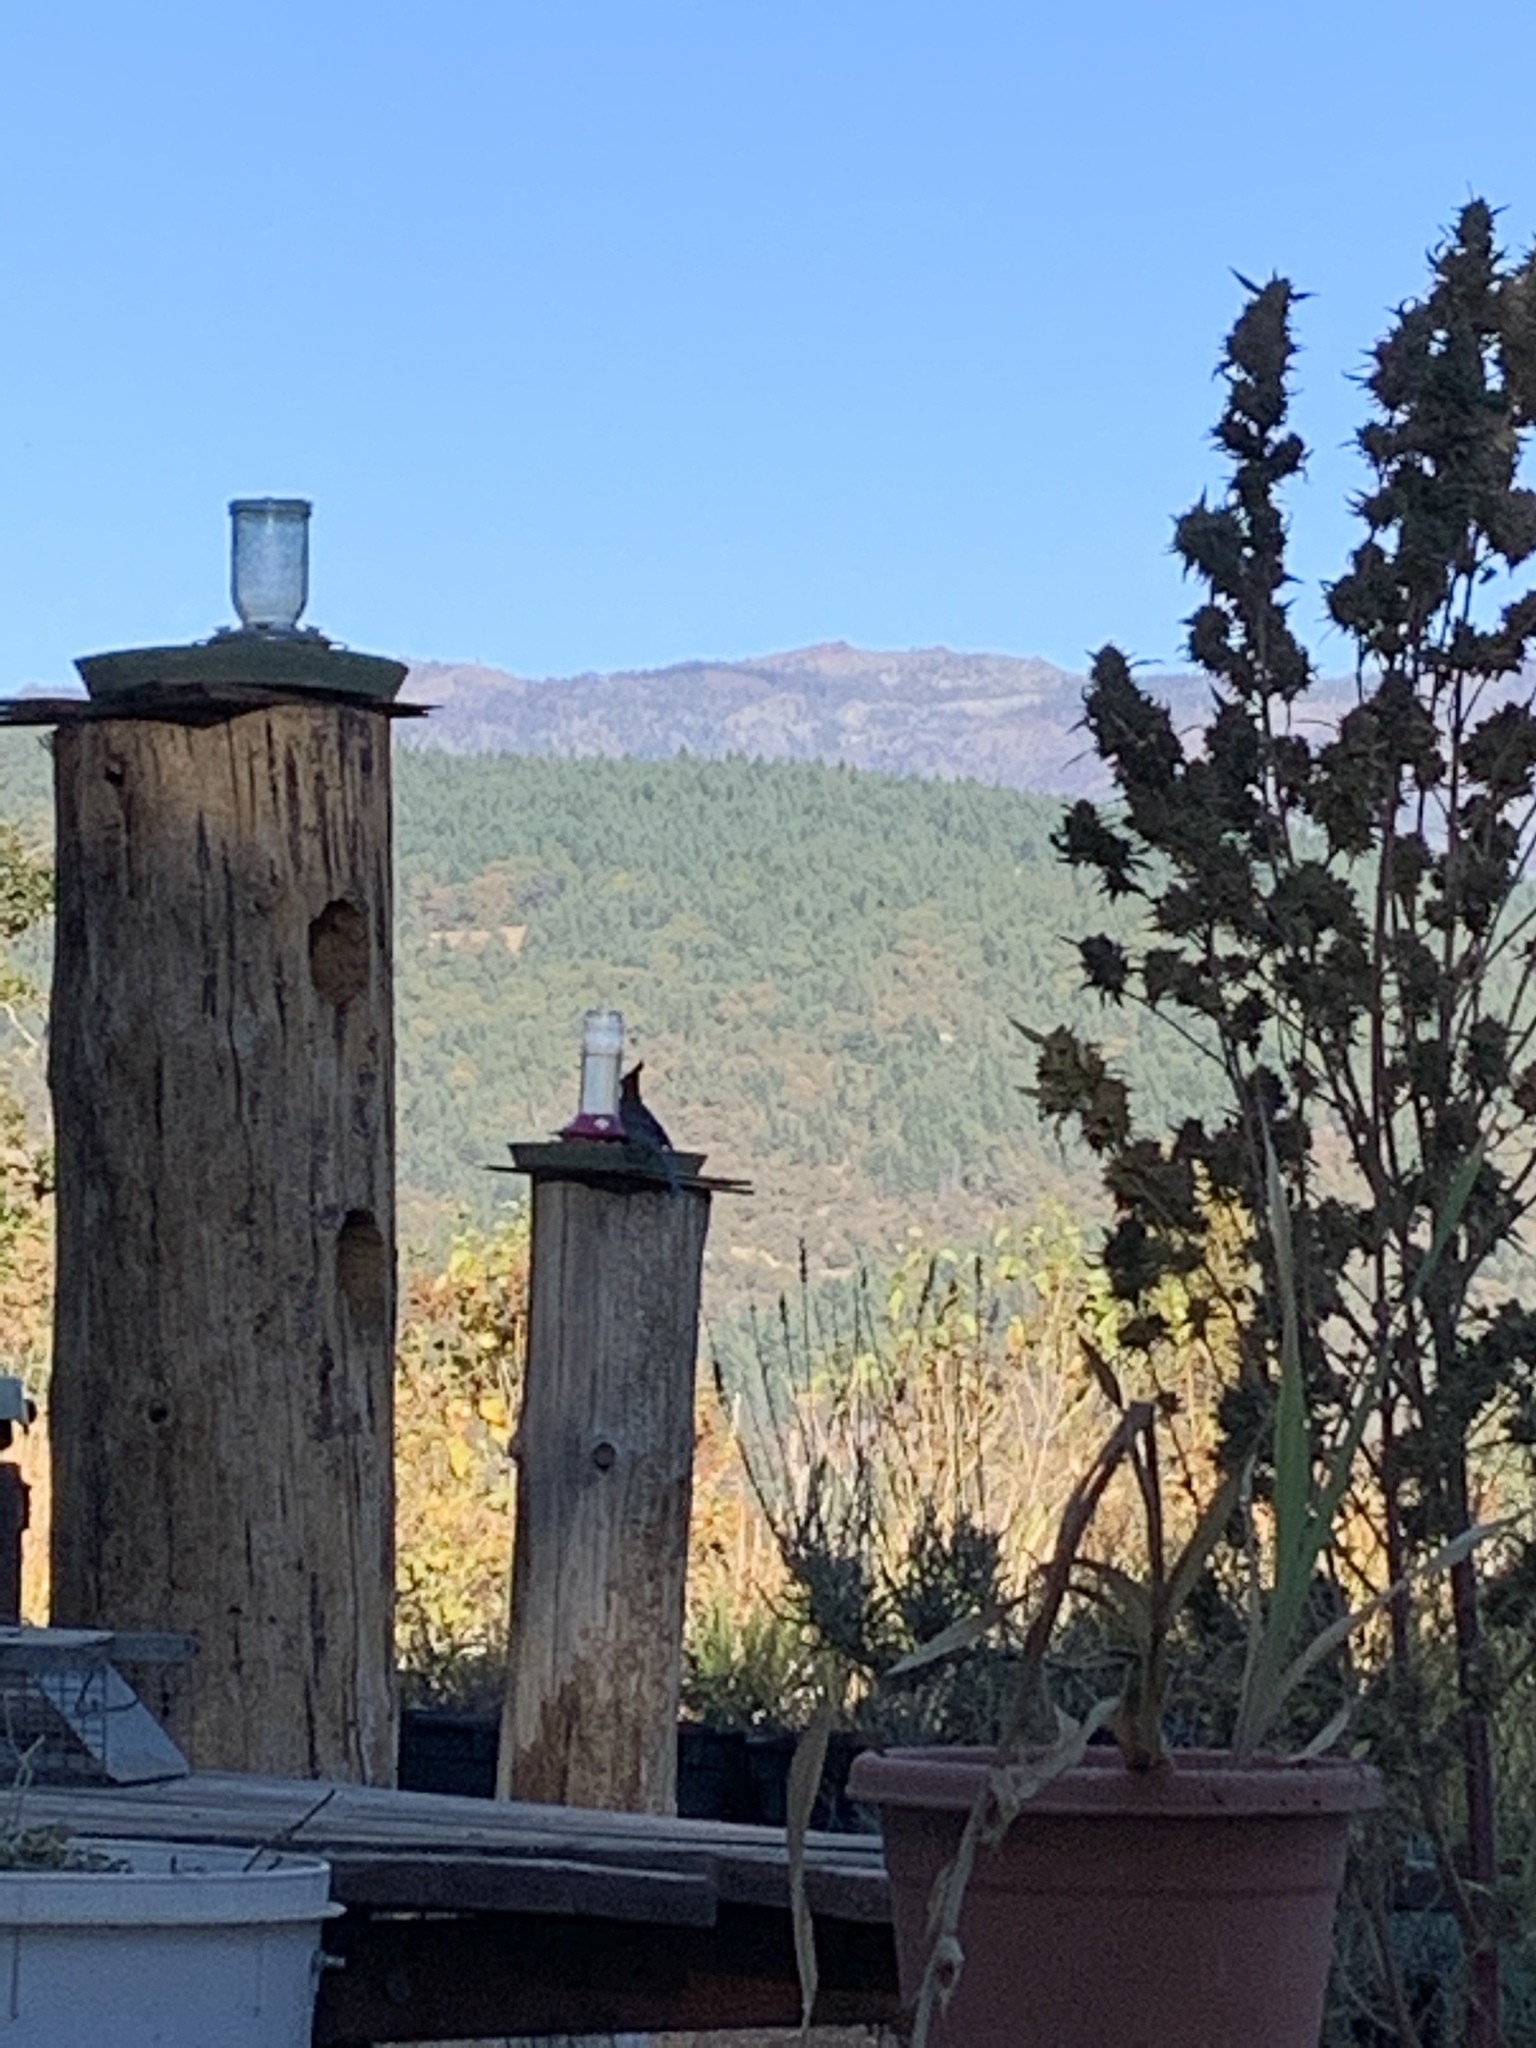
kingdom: Animalia
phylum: Chordata
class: Aves
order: Passeriformes
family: Corvidae
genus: Cyanocitta
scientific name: Cyanocitta stelleri
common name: Steller's jay
